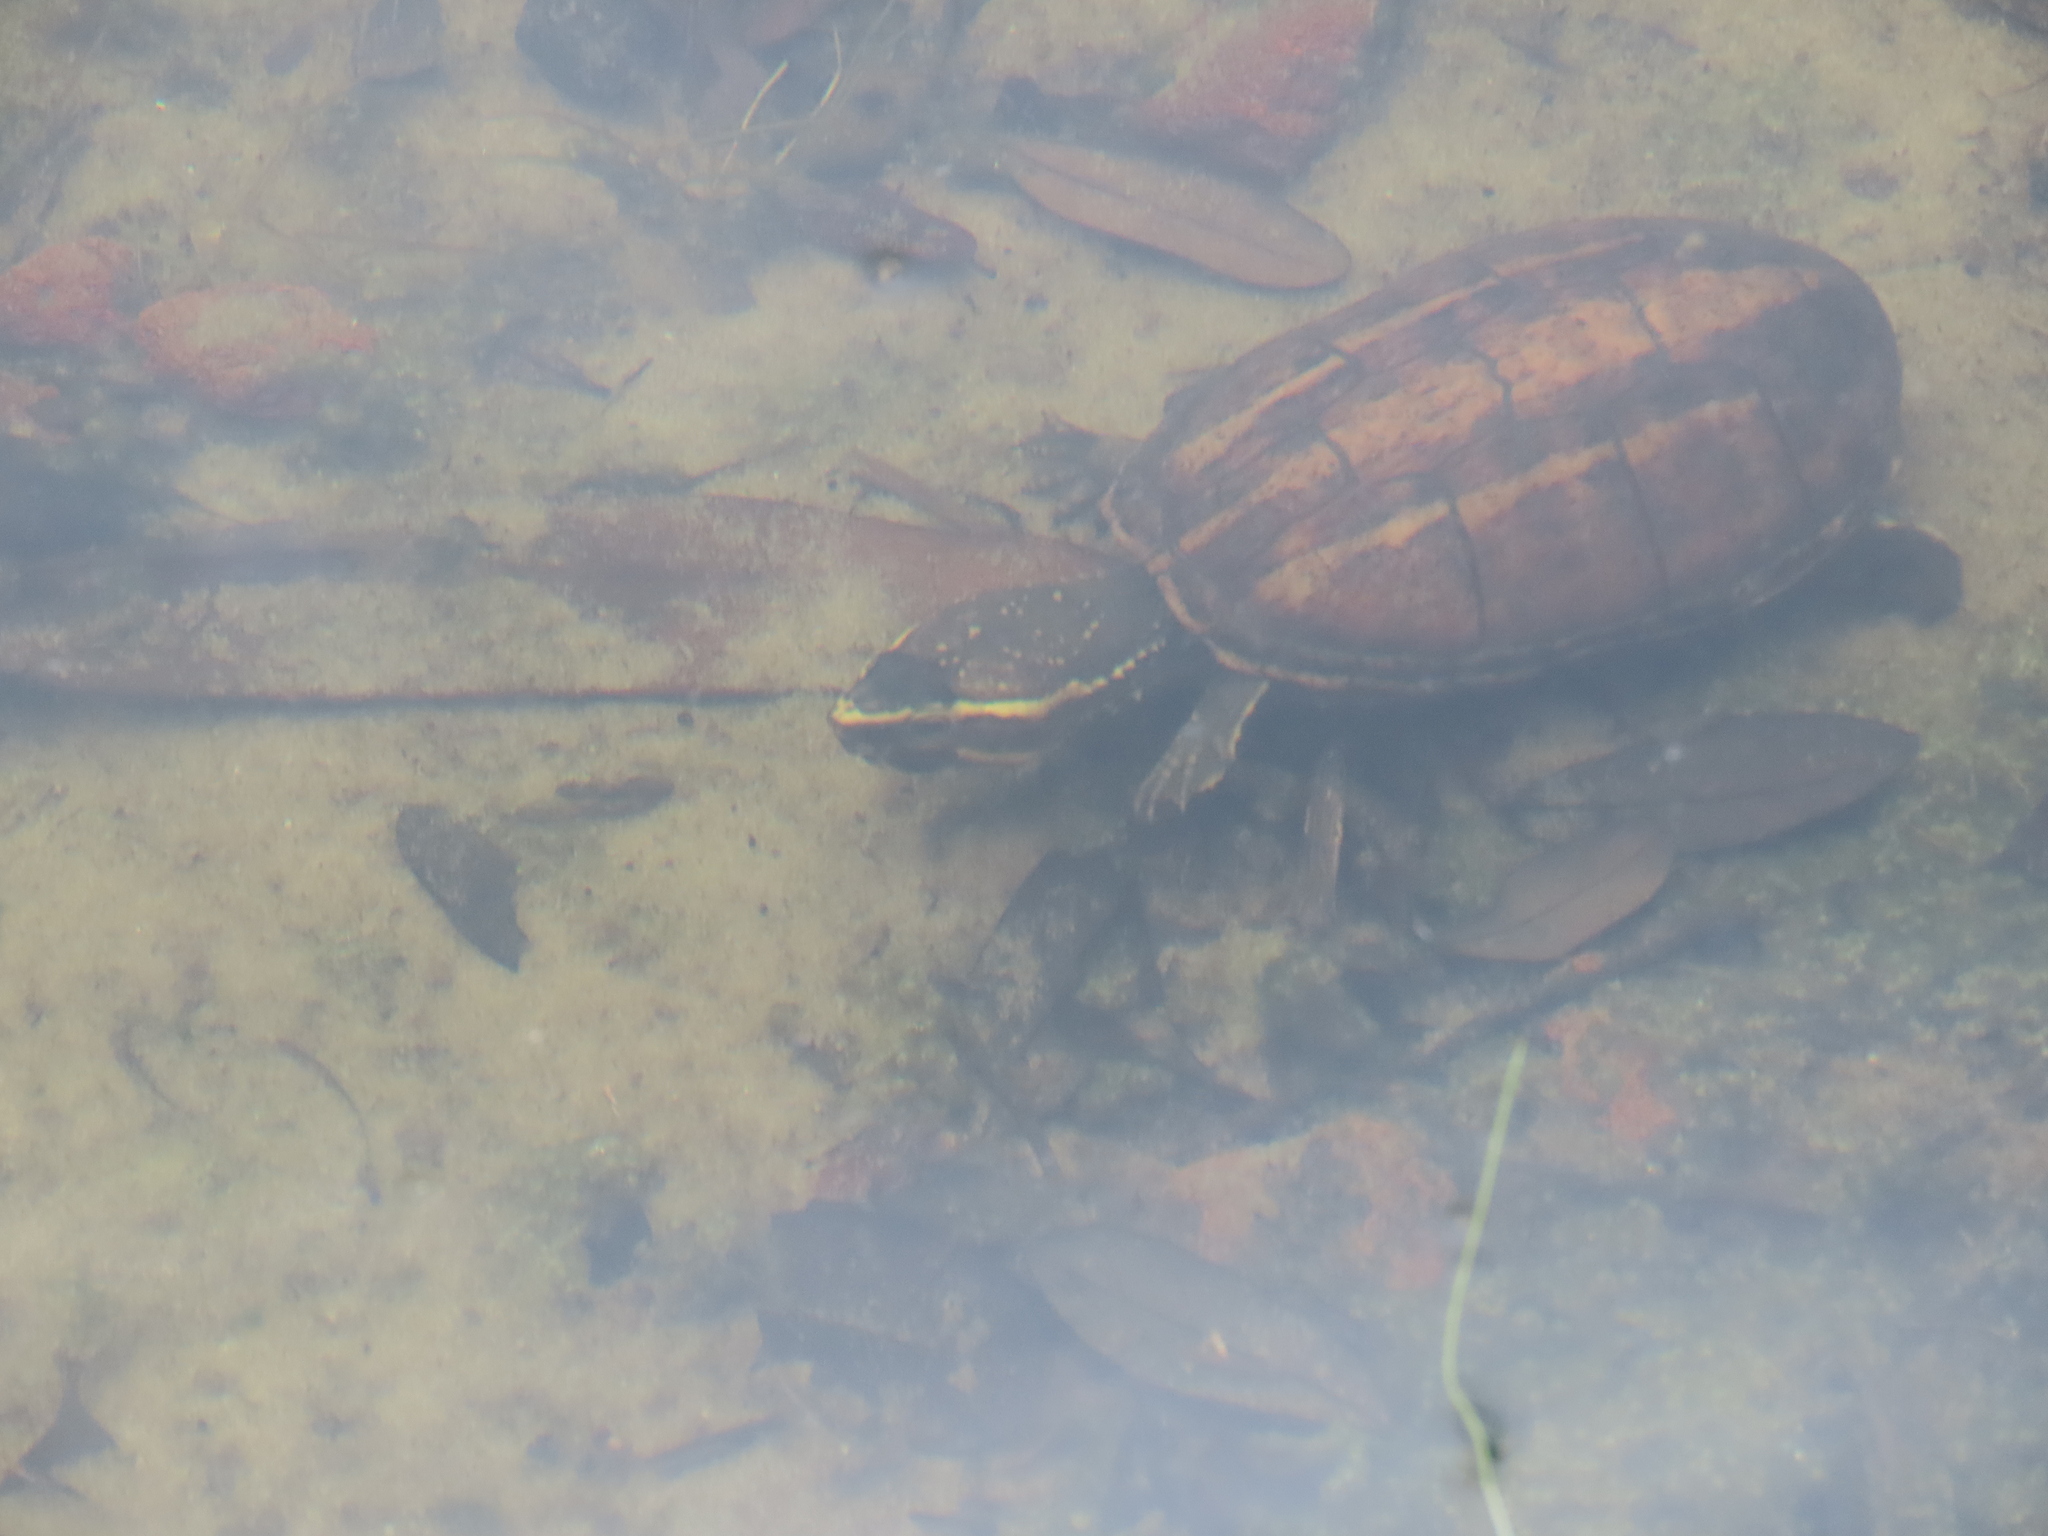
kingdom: Animalia
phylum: Chordata
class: Testudines
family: Kinosternidae
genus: Kinosternon
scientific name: Kinosternon baurii
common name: Striped mud turtle
